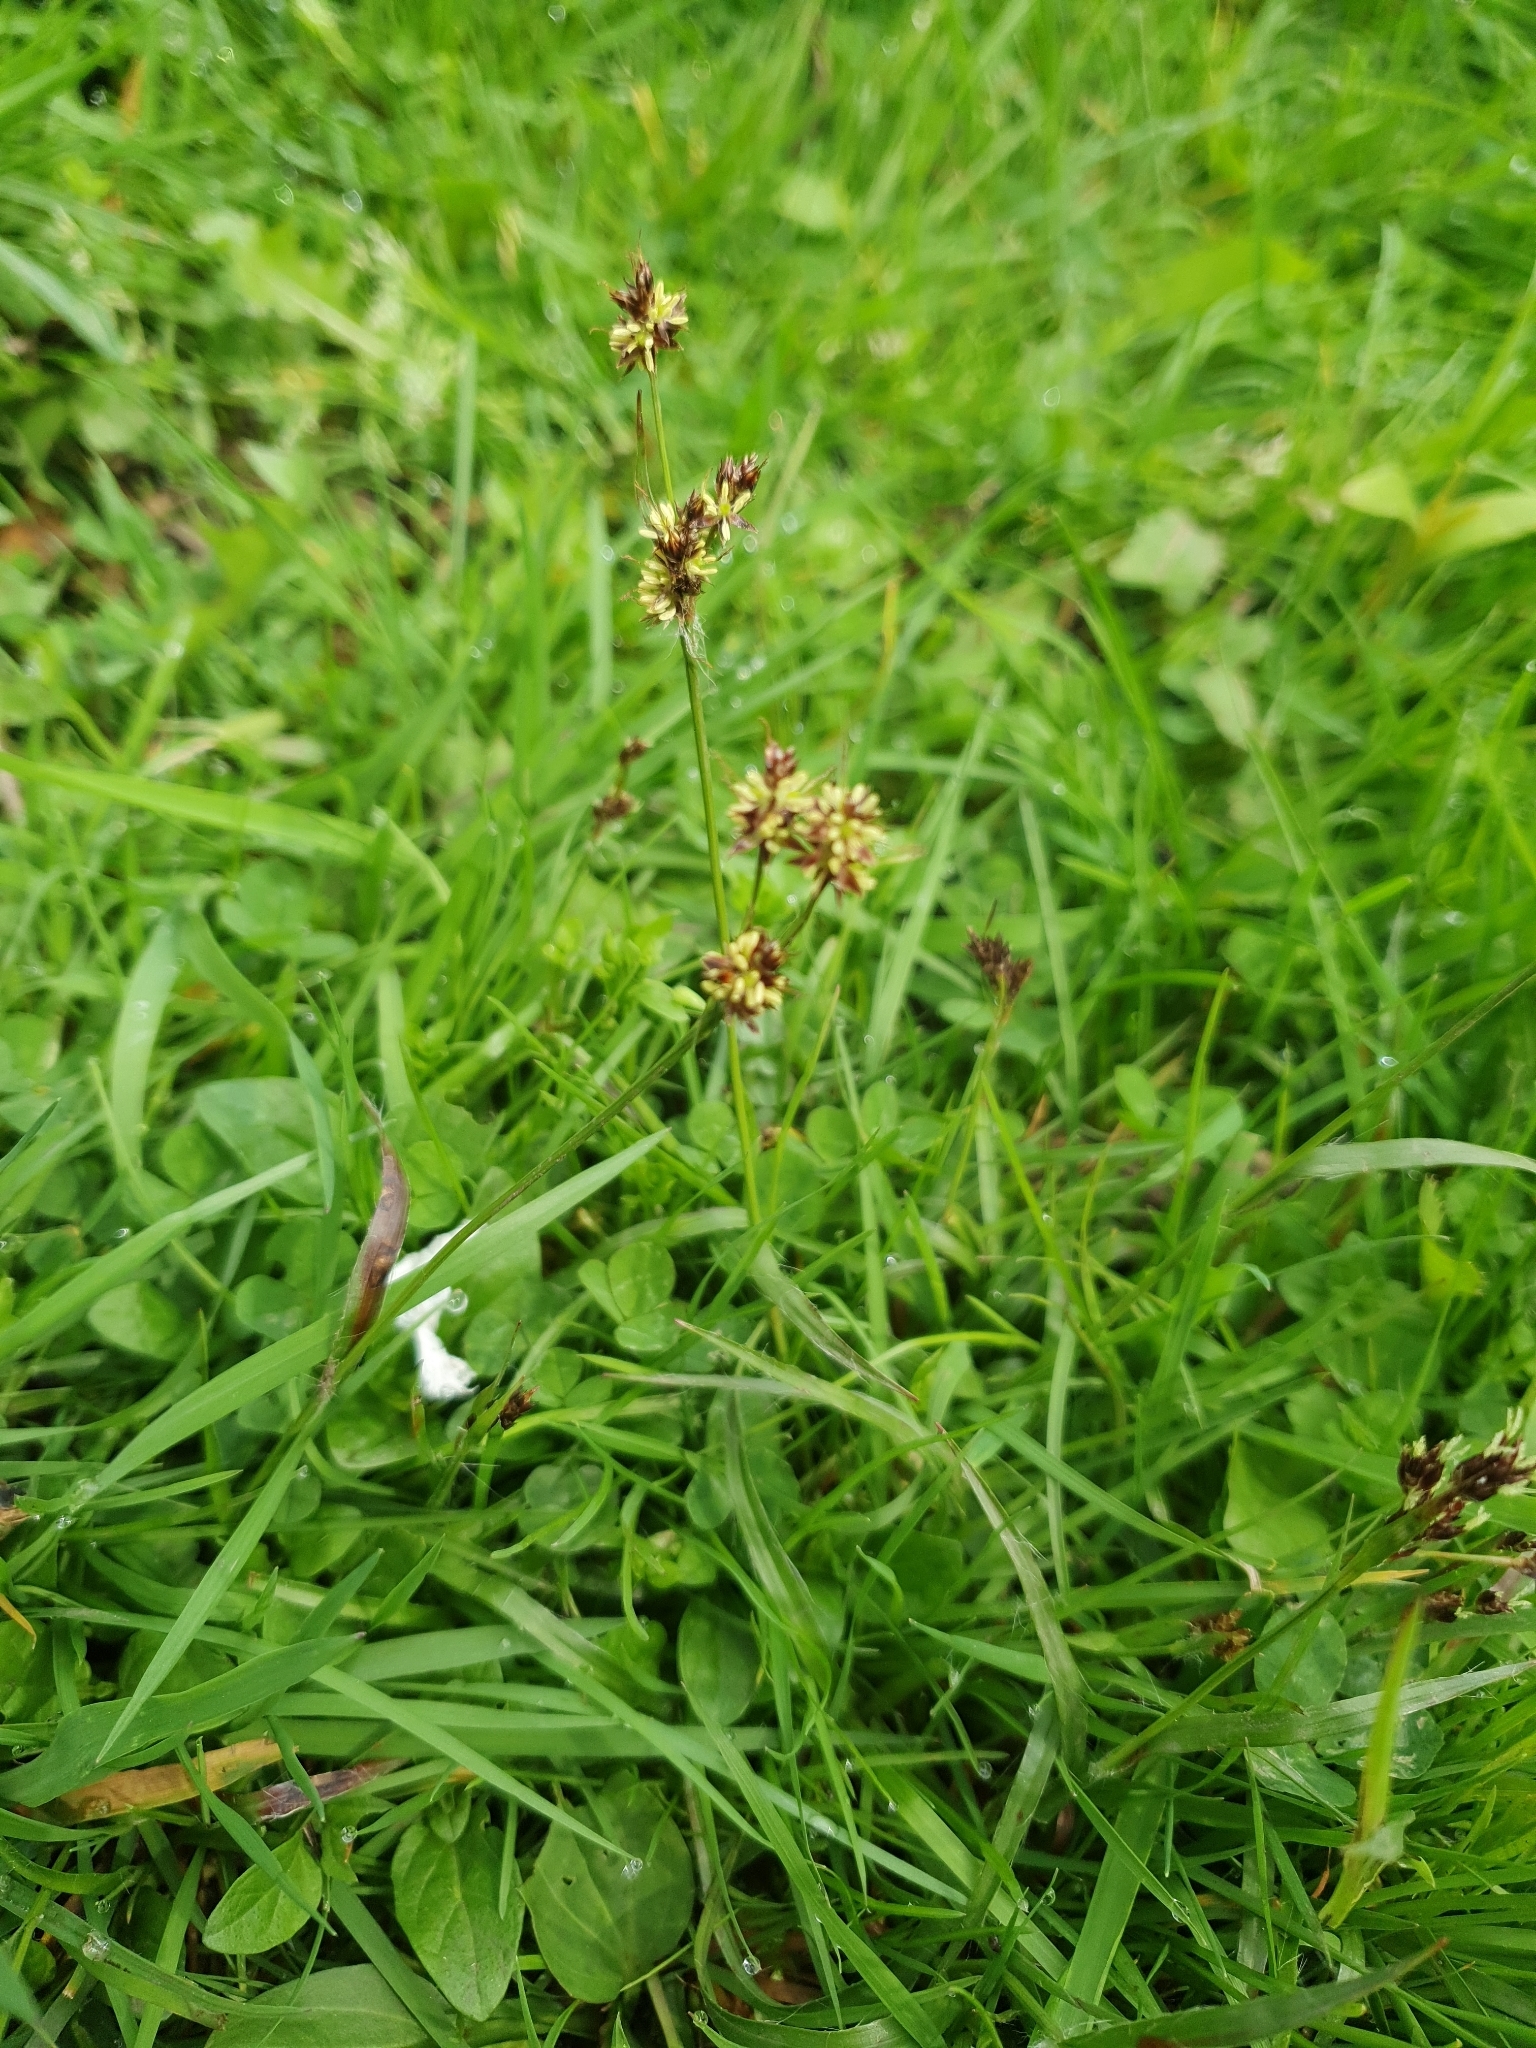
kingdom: Plantae
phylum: Tracheophyta
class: Liliopsida
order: Poales
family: Juncaceae
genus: Luzula
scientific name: Luzula campestris
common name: Field wood-rush
